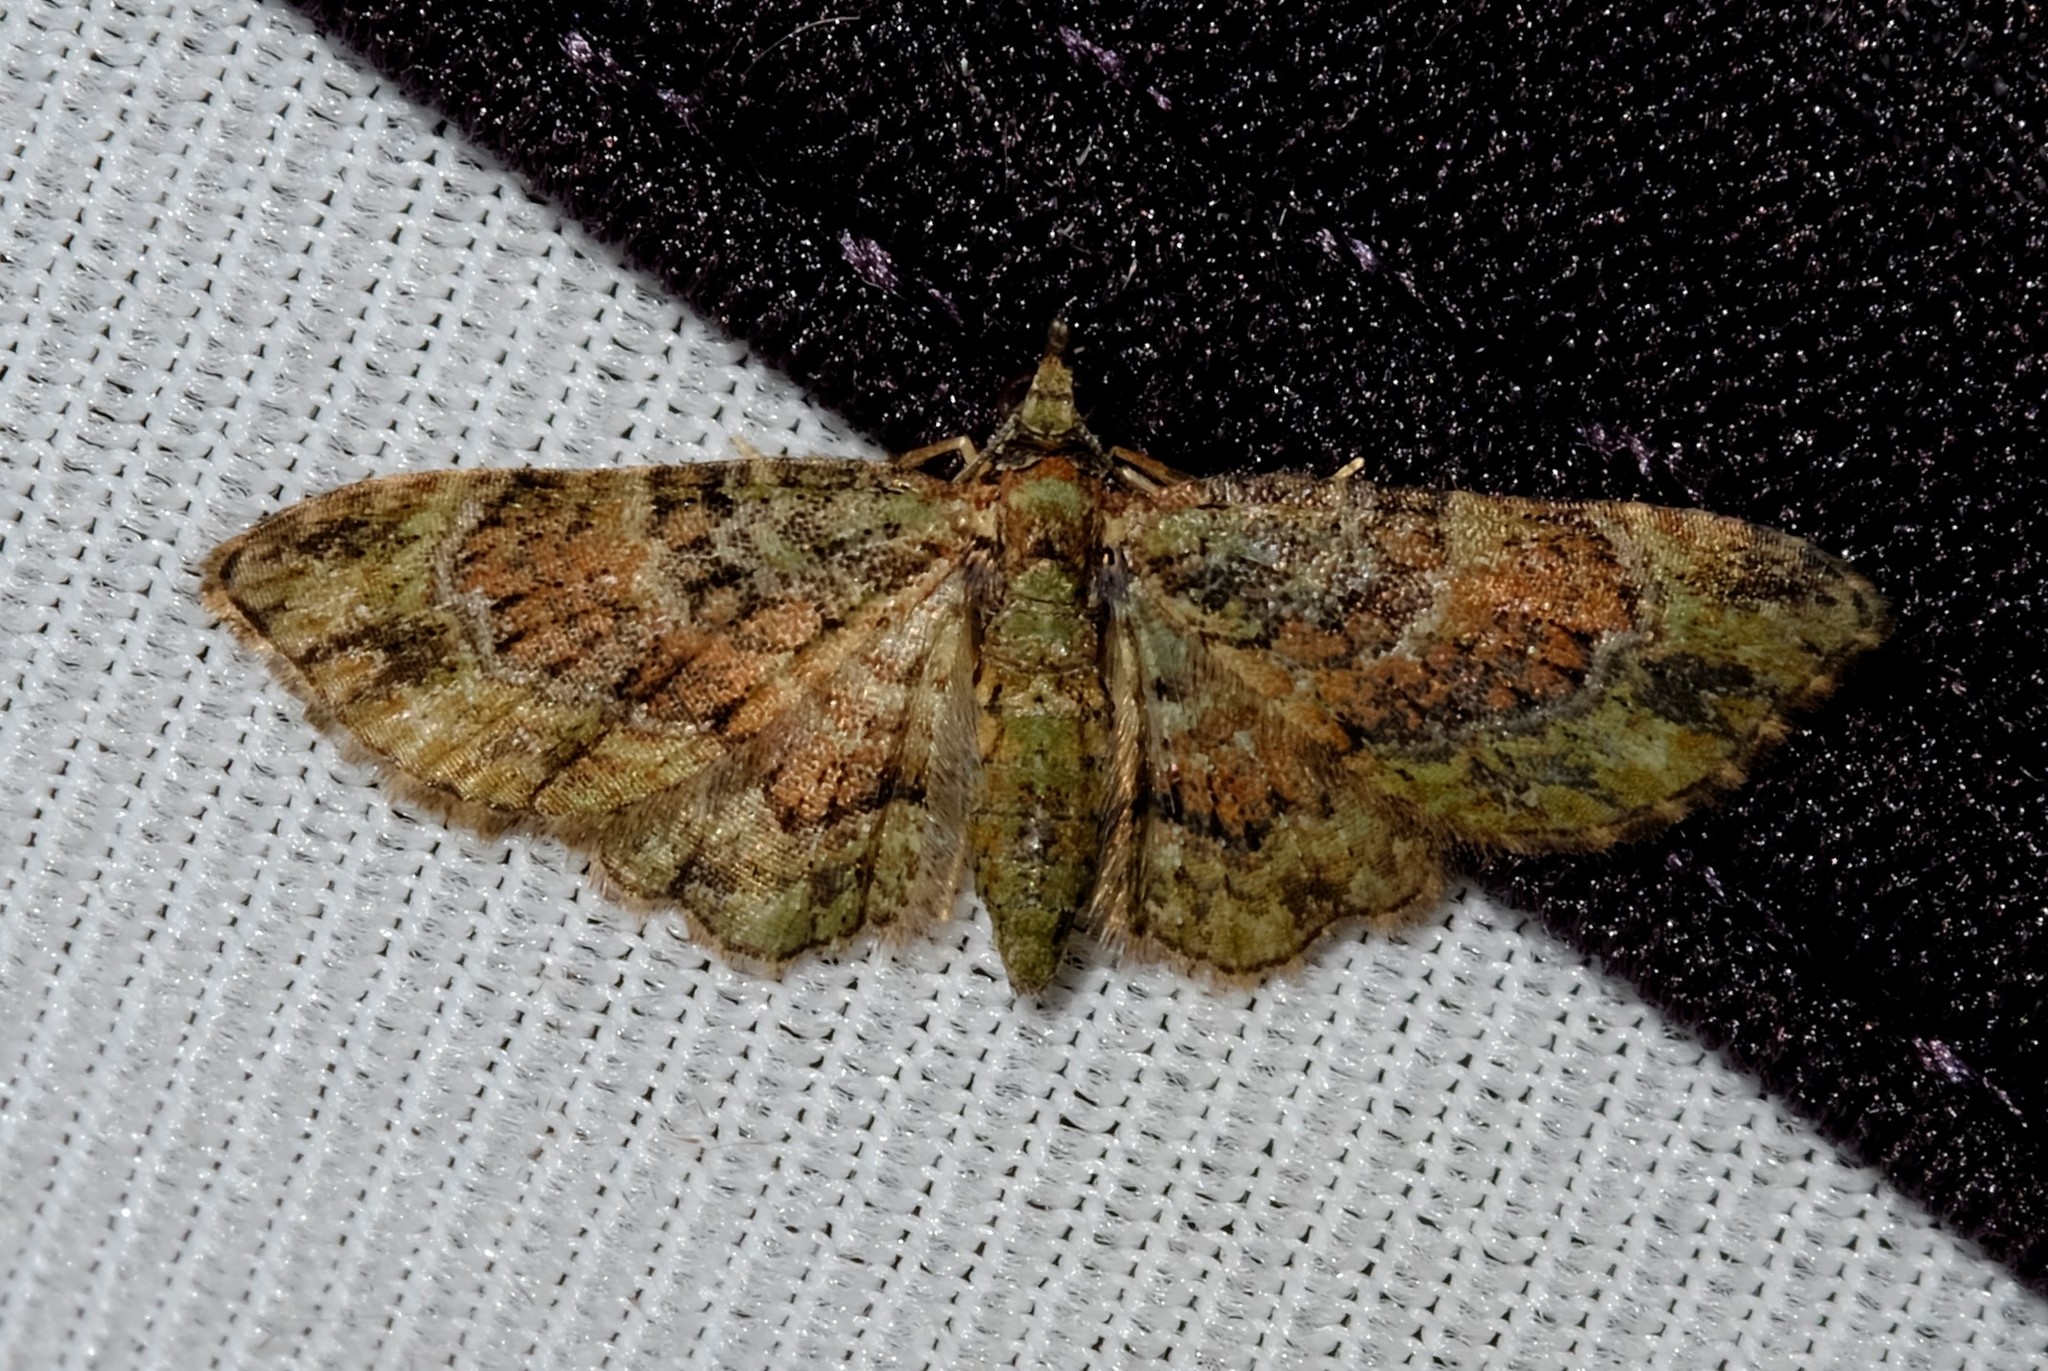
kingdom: Animalia
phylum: Arthropoda
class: Insecta
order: Lepidoptera
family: Geometridae
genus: Chloroclystis
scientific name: Chloroclystis catastreptes
